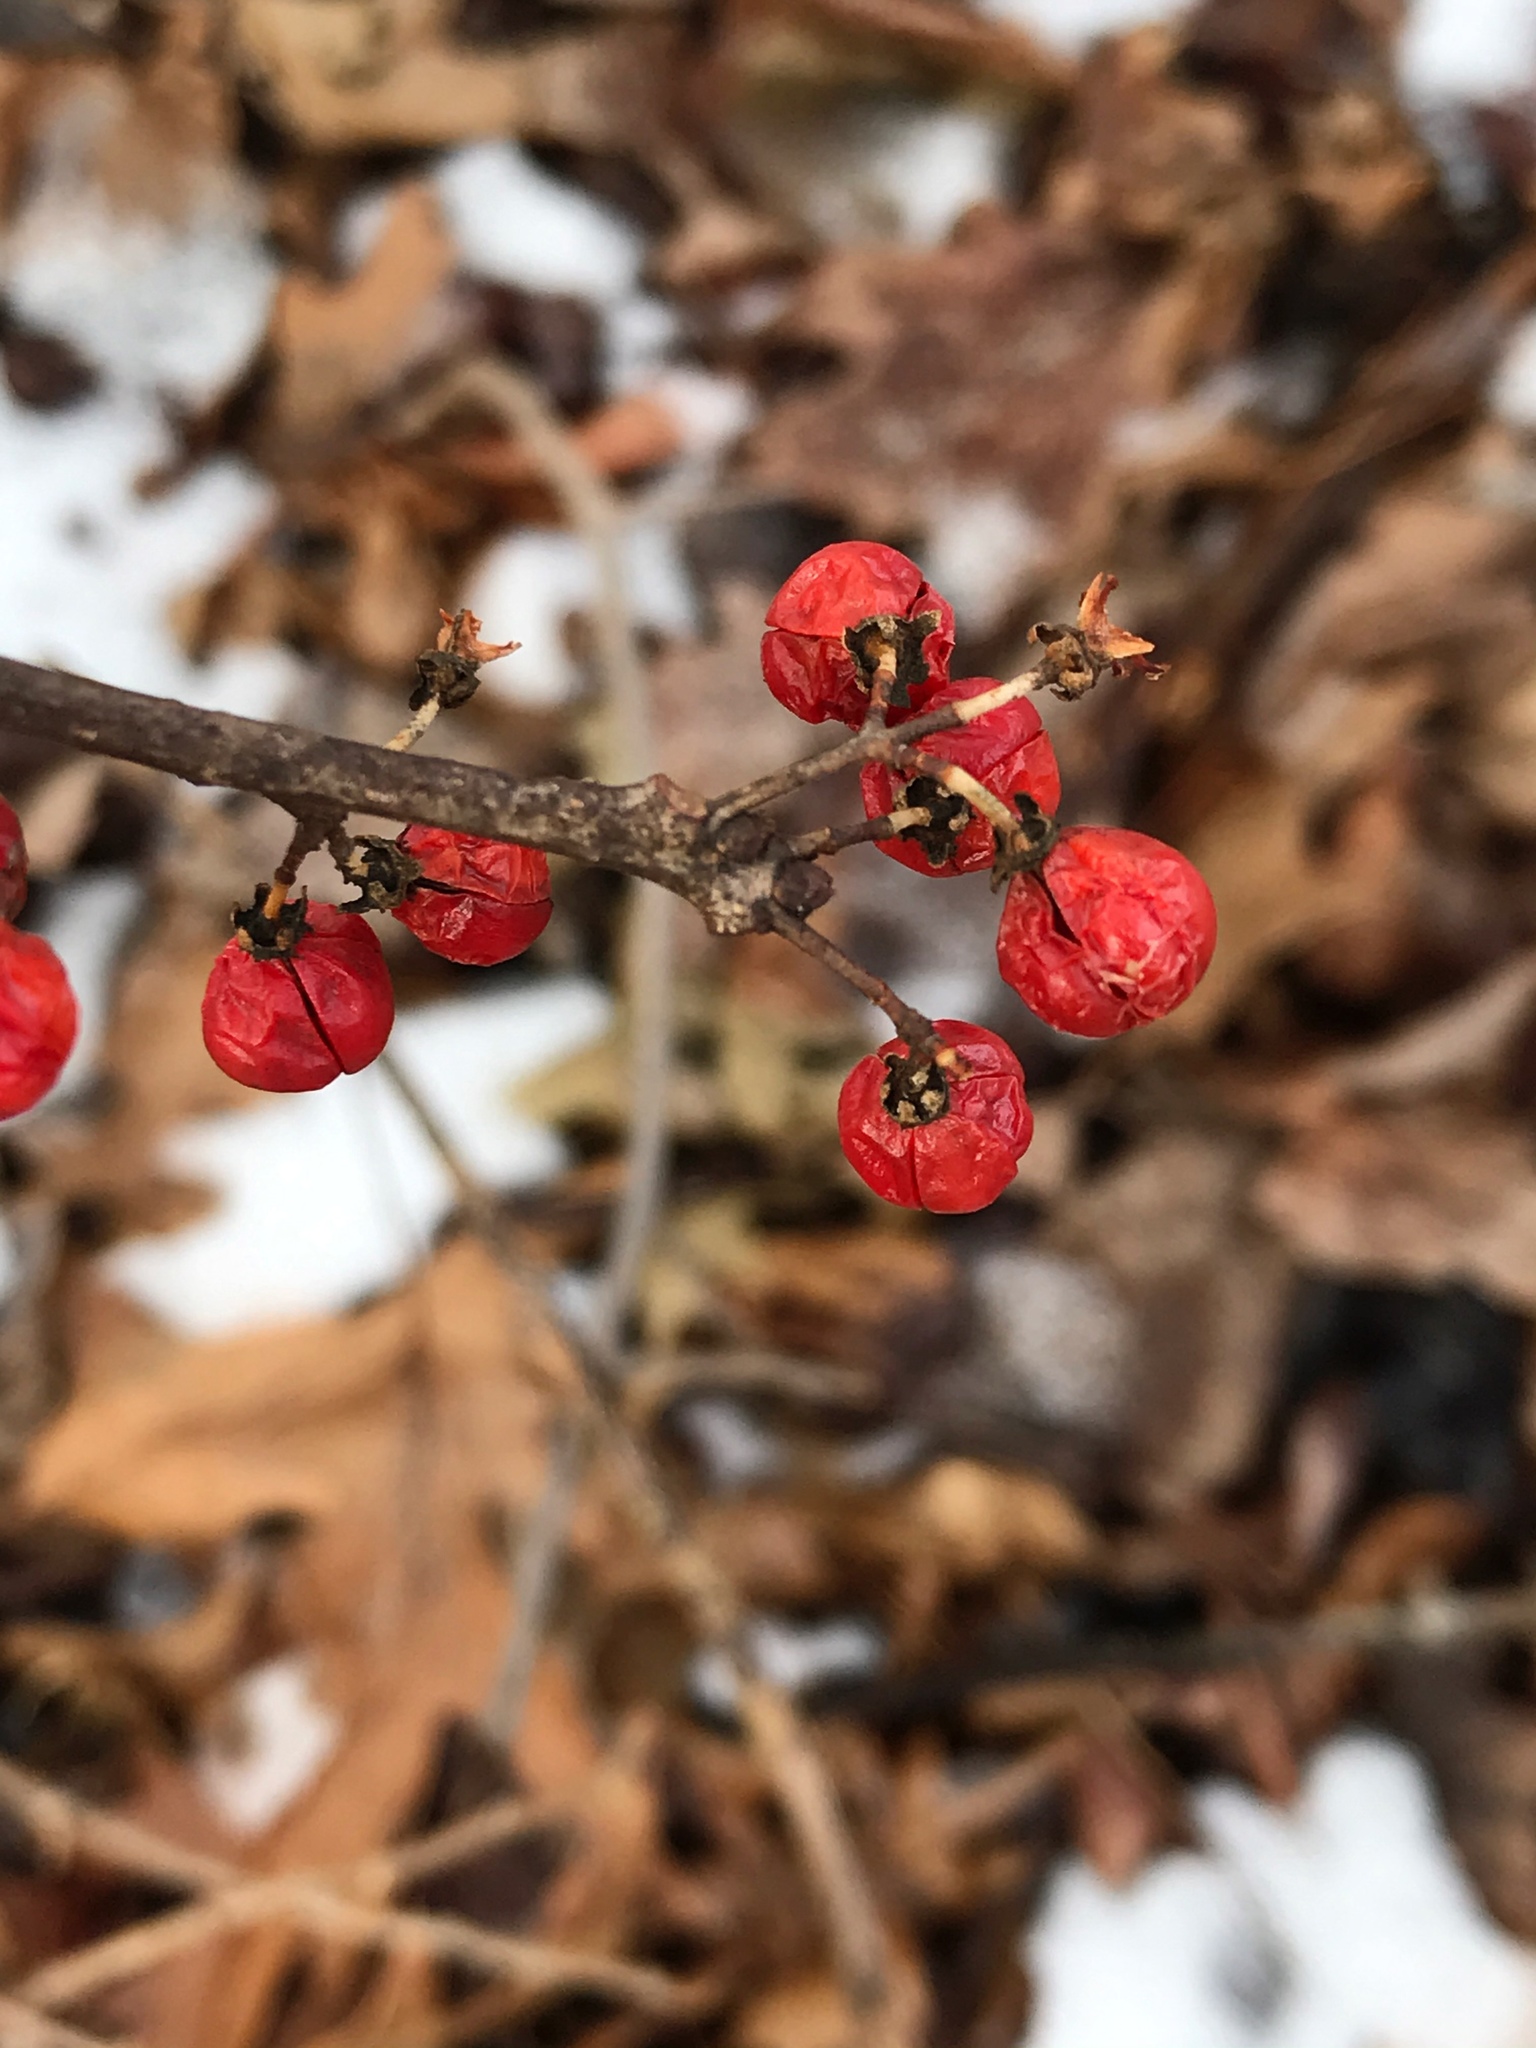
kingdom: Plantae
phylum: Tracheophyta
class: Magnoliopsida
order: Celastrales
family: Celastraceae
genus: Celastrus
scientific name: Celastrus orbiculatus
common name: Oriental bittersweet
